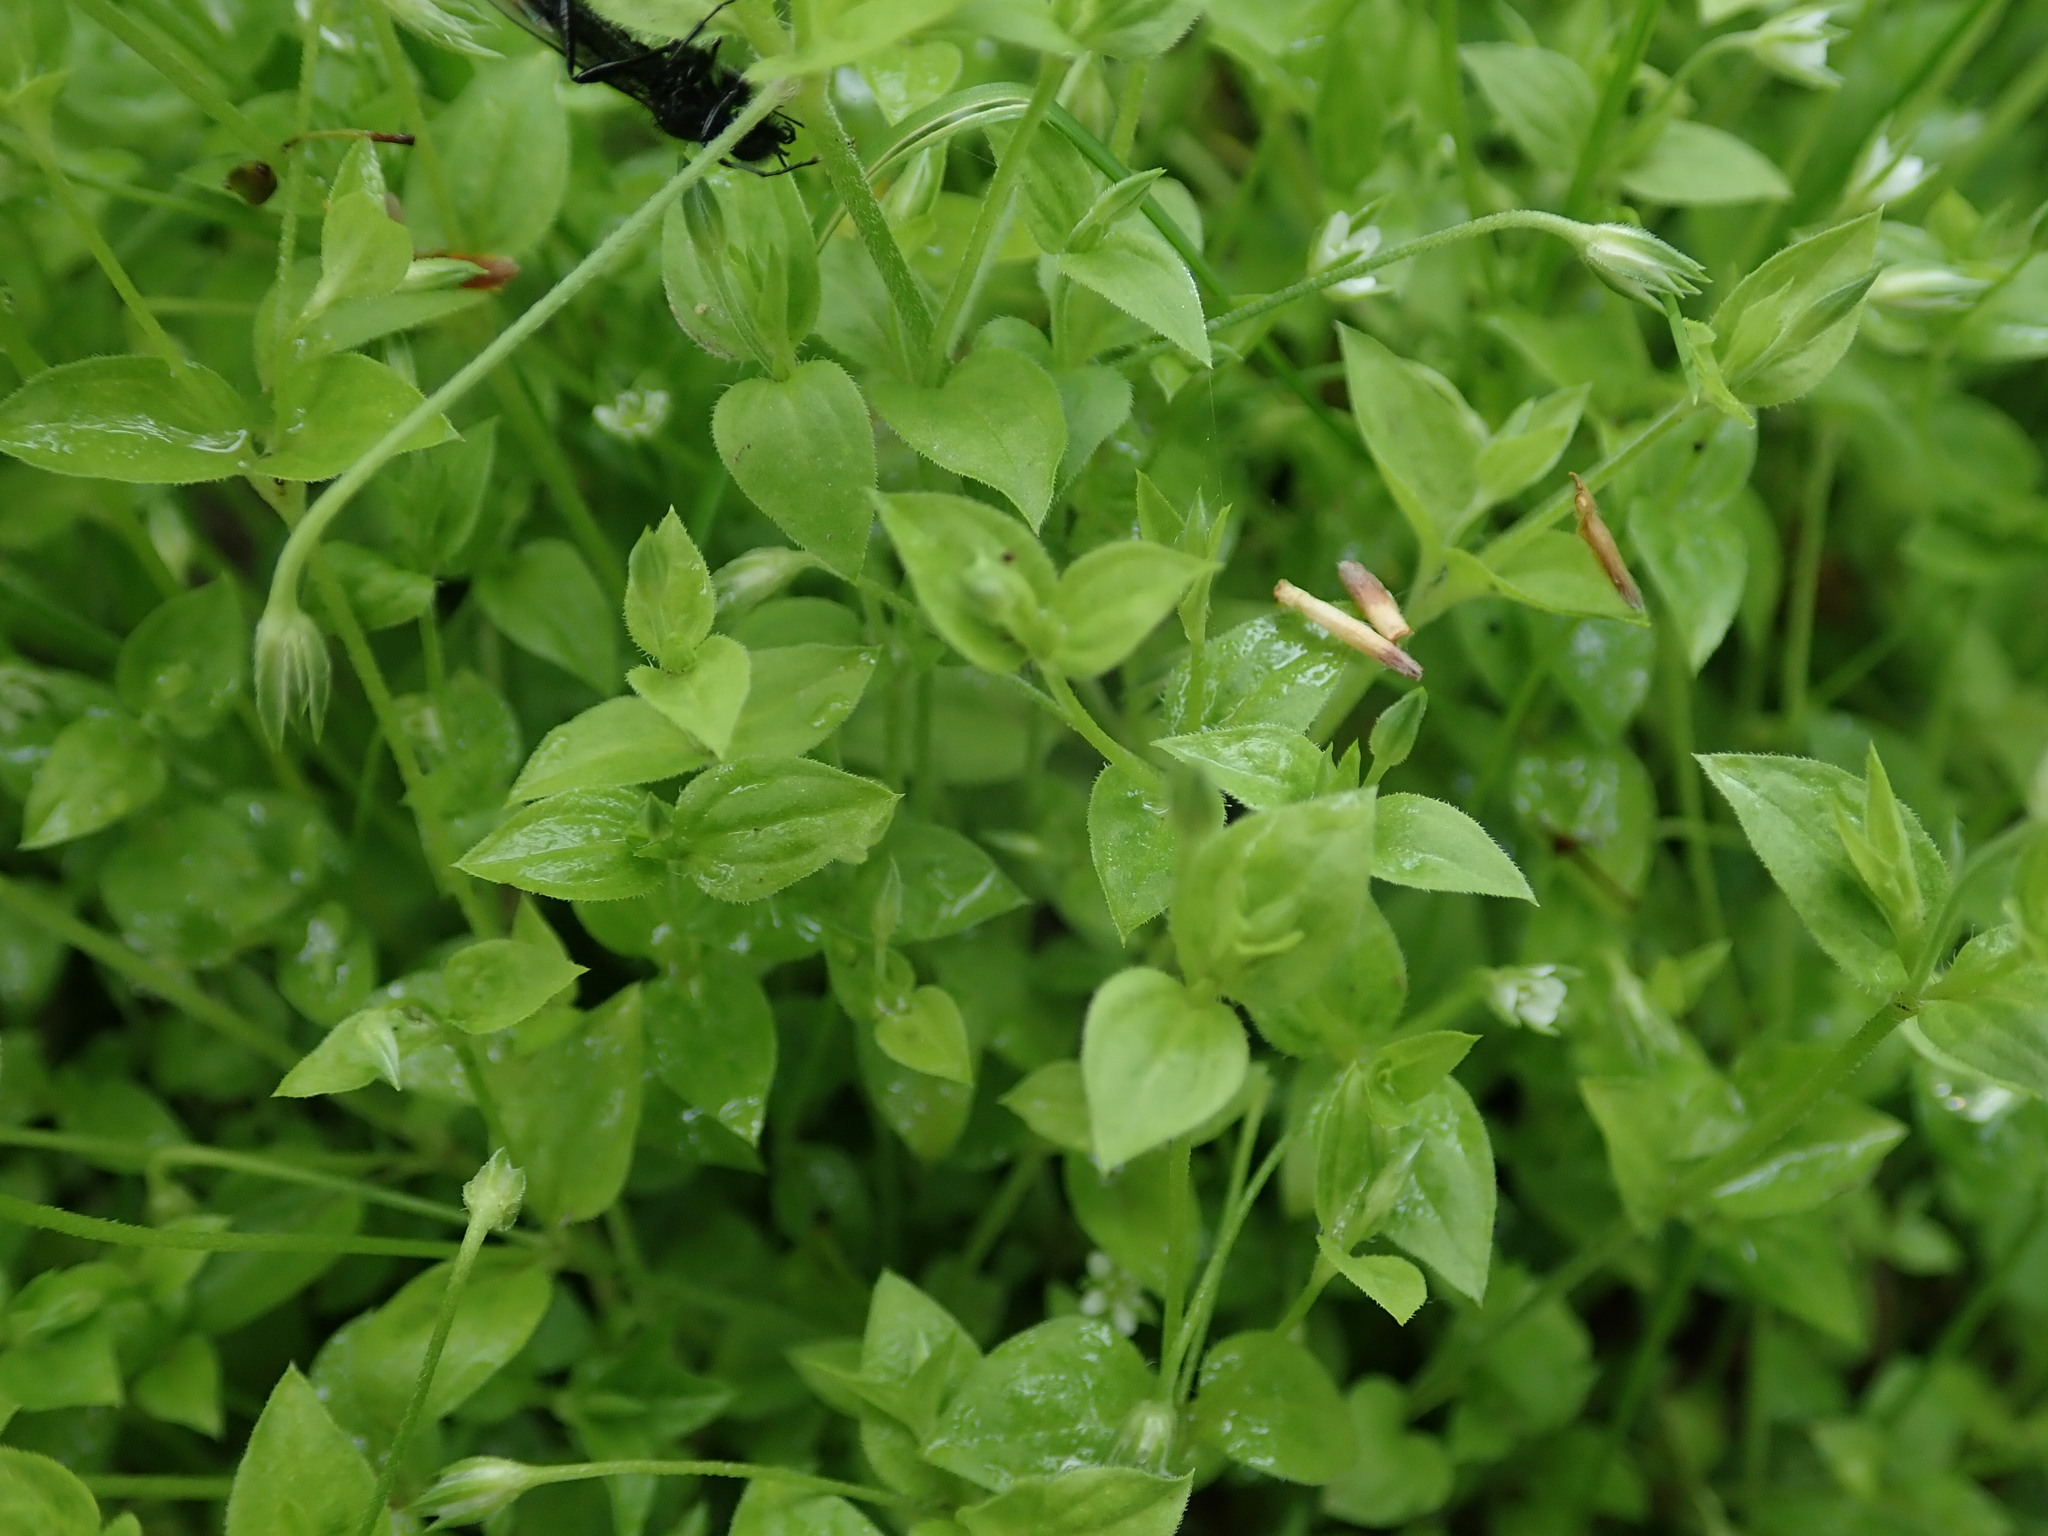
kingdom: Plantae
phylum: Tracheophyta
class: Magnoliopsida
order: Caryophyllales
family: Caryophyllaceae
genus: Moehringia
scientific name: Moehringia trinervia
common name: Three-nerved sandwort
